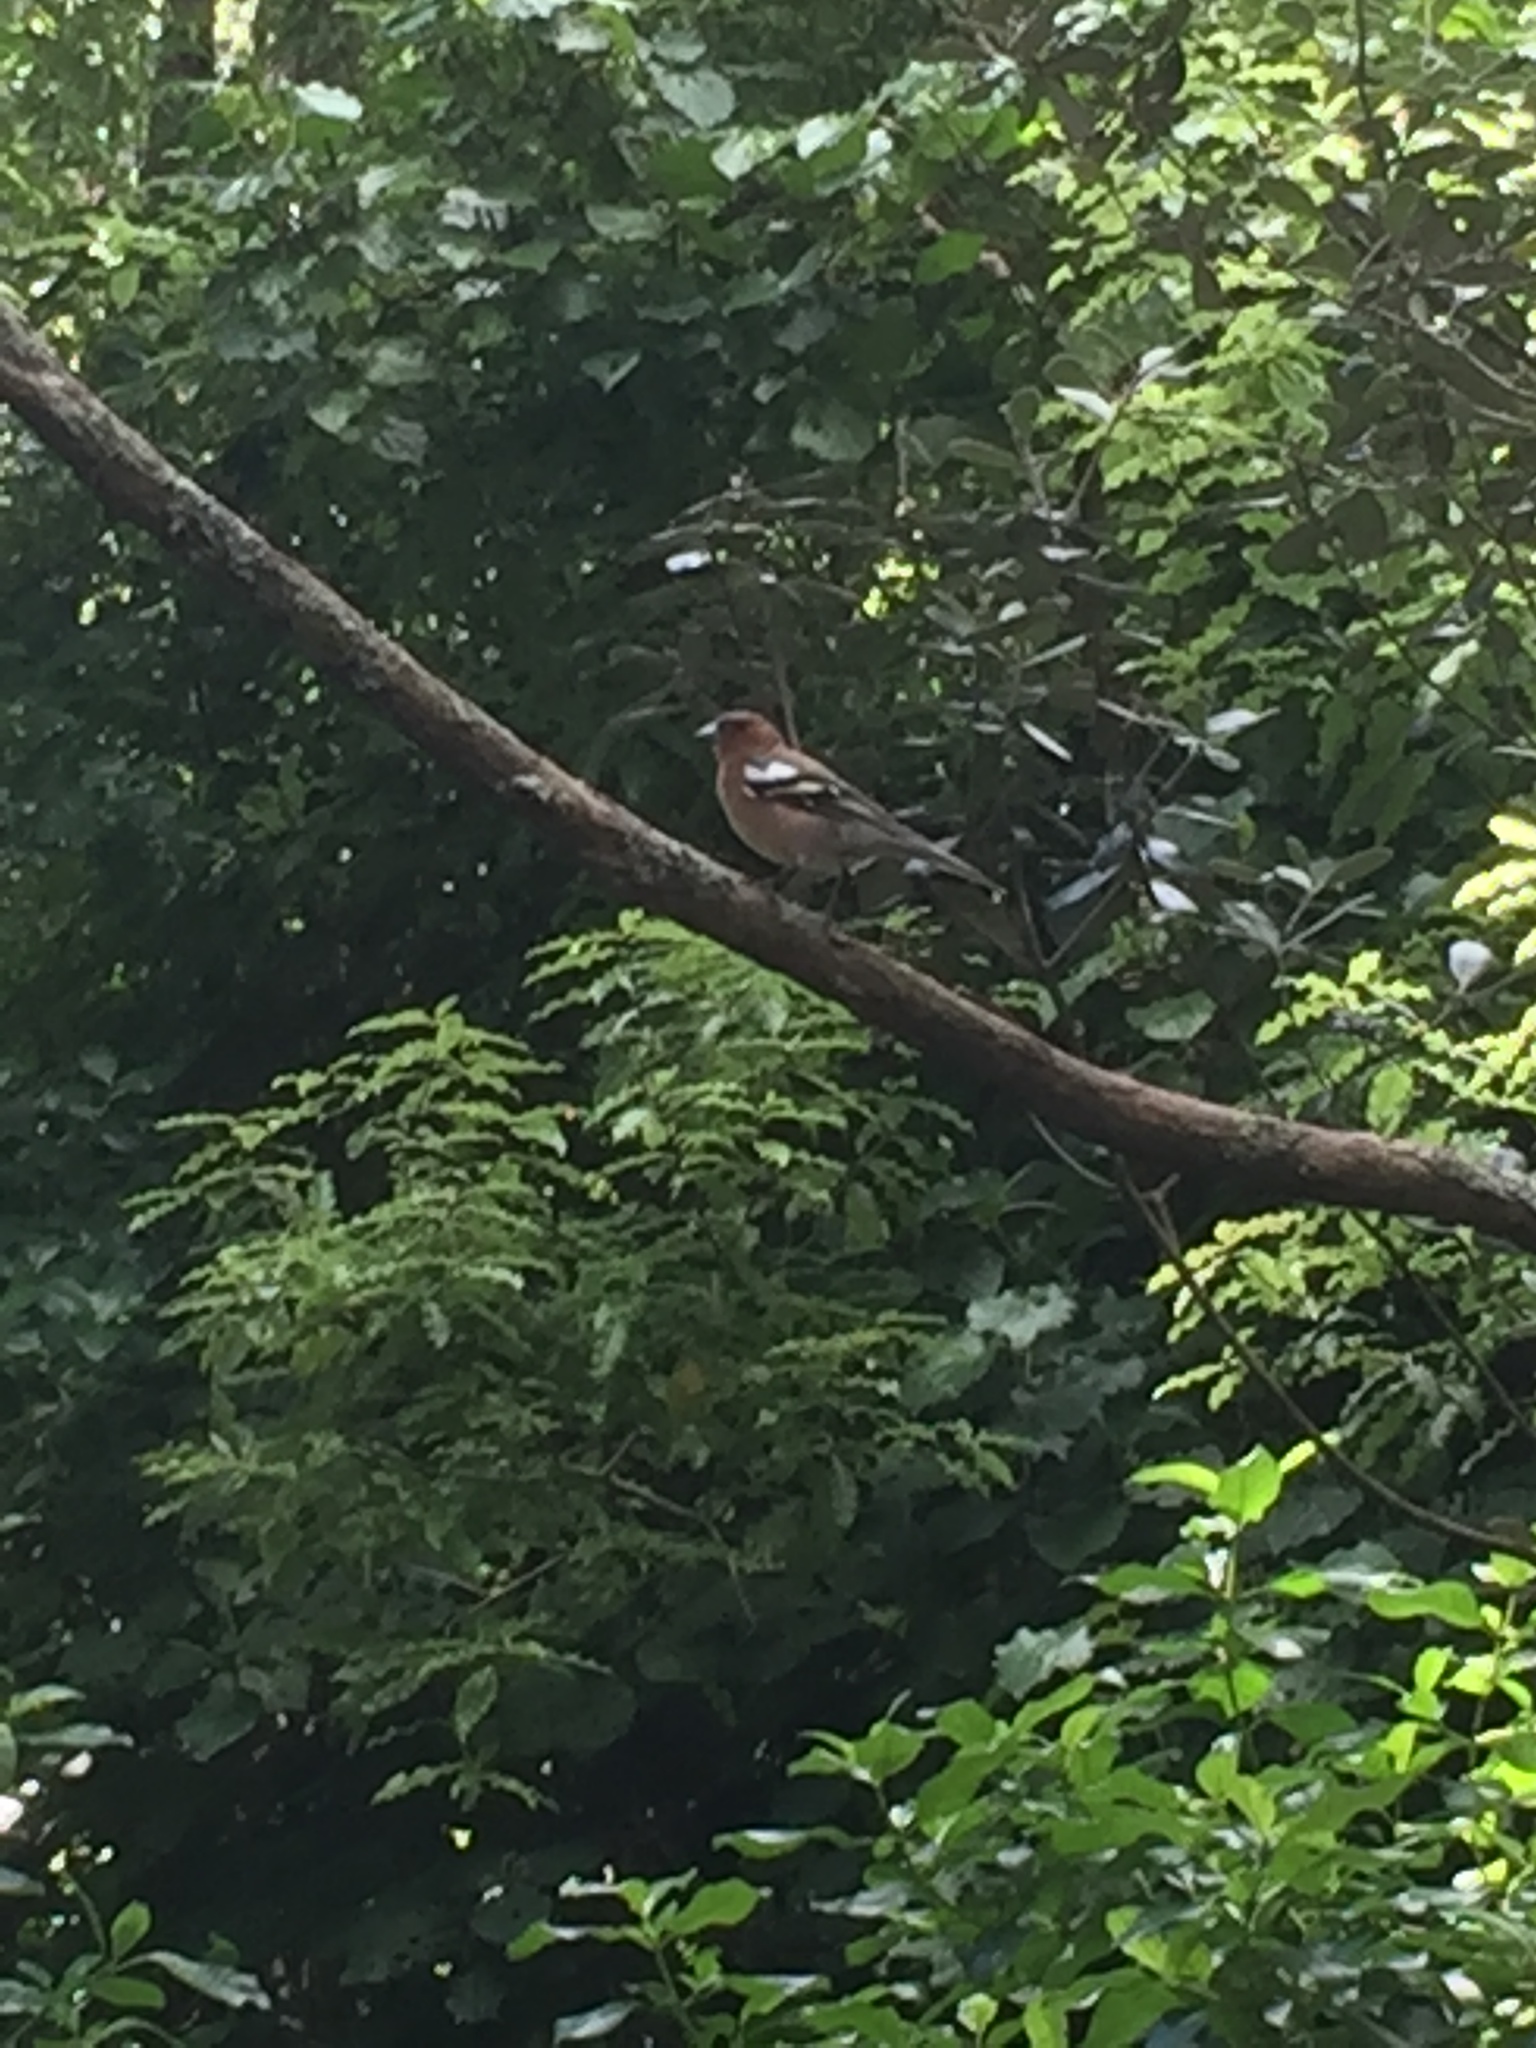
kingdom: Animalia
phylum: Chordata
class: Aves
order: Passeriformes
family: Fringillidae
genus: Fringilla
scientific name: Fringilla coelebs
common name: Common chaffinch
